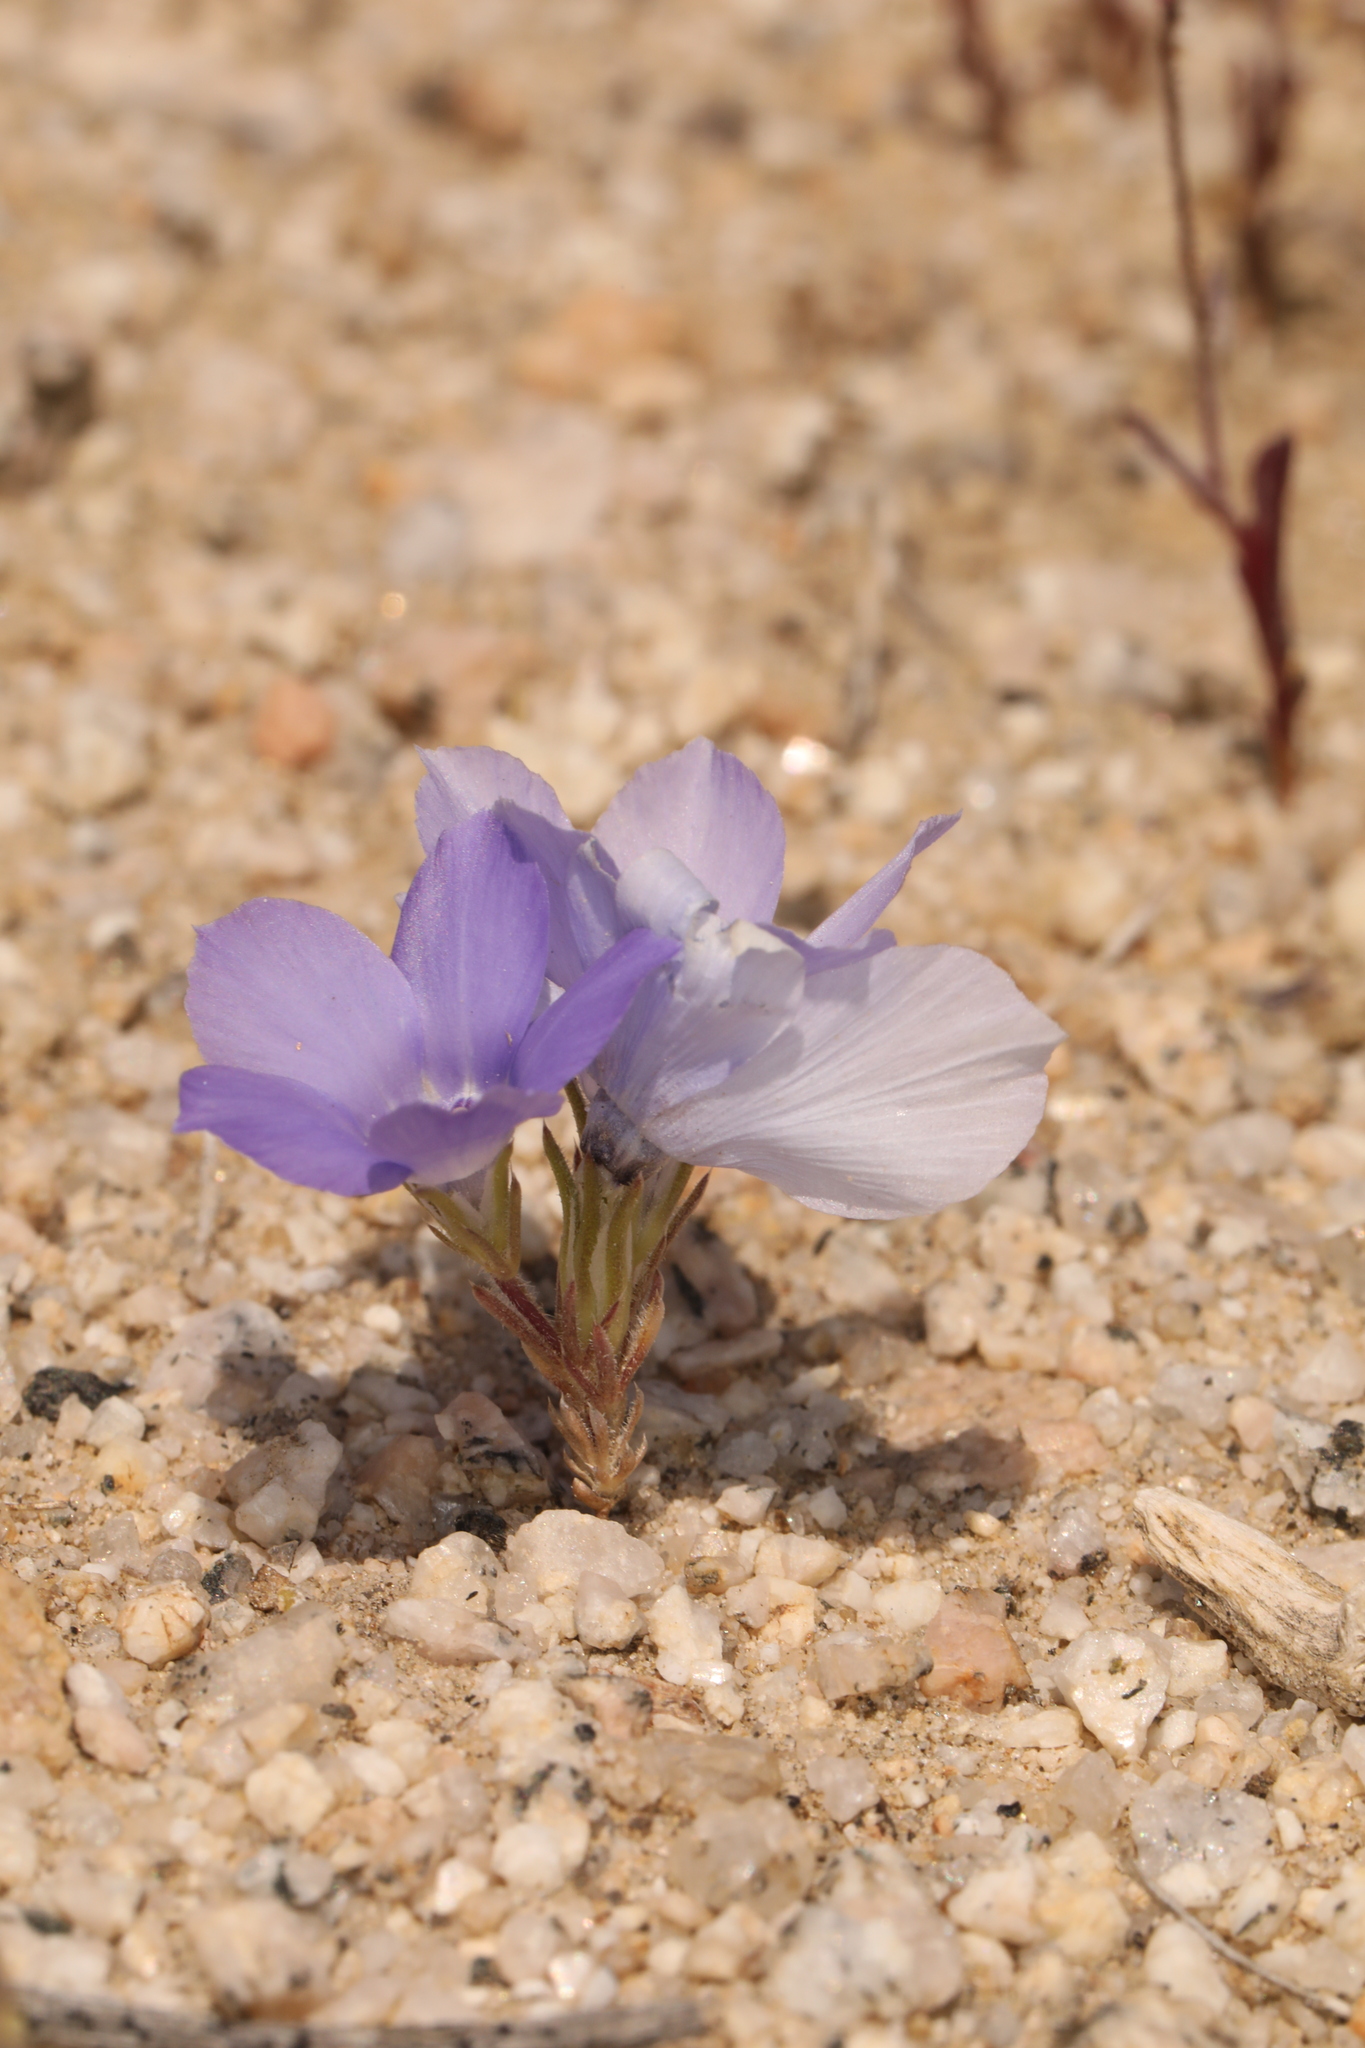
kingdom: Plantae
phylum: Tracheophyta
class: Magnoliopsida
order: Ericales
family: Polemoniaceae
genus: Linanthus
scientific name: Linanthus parryae
